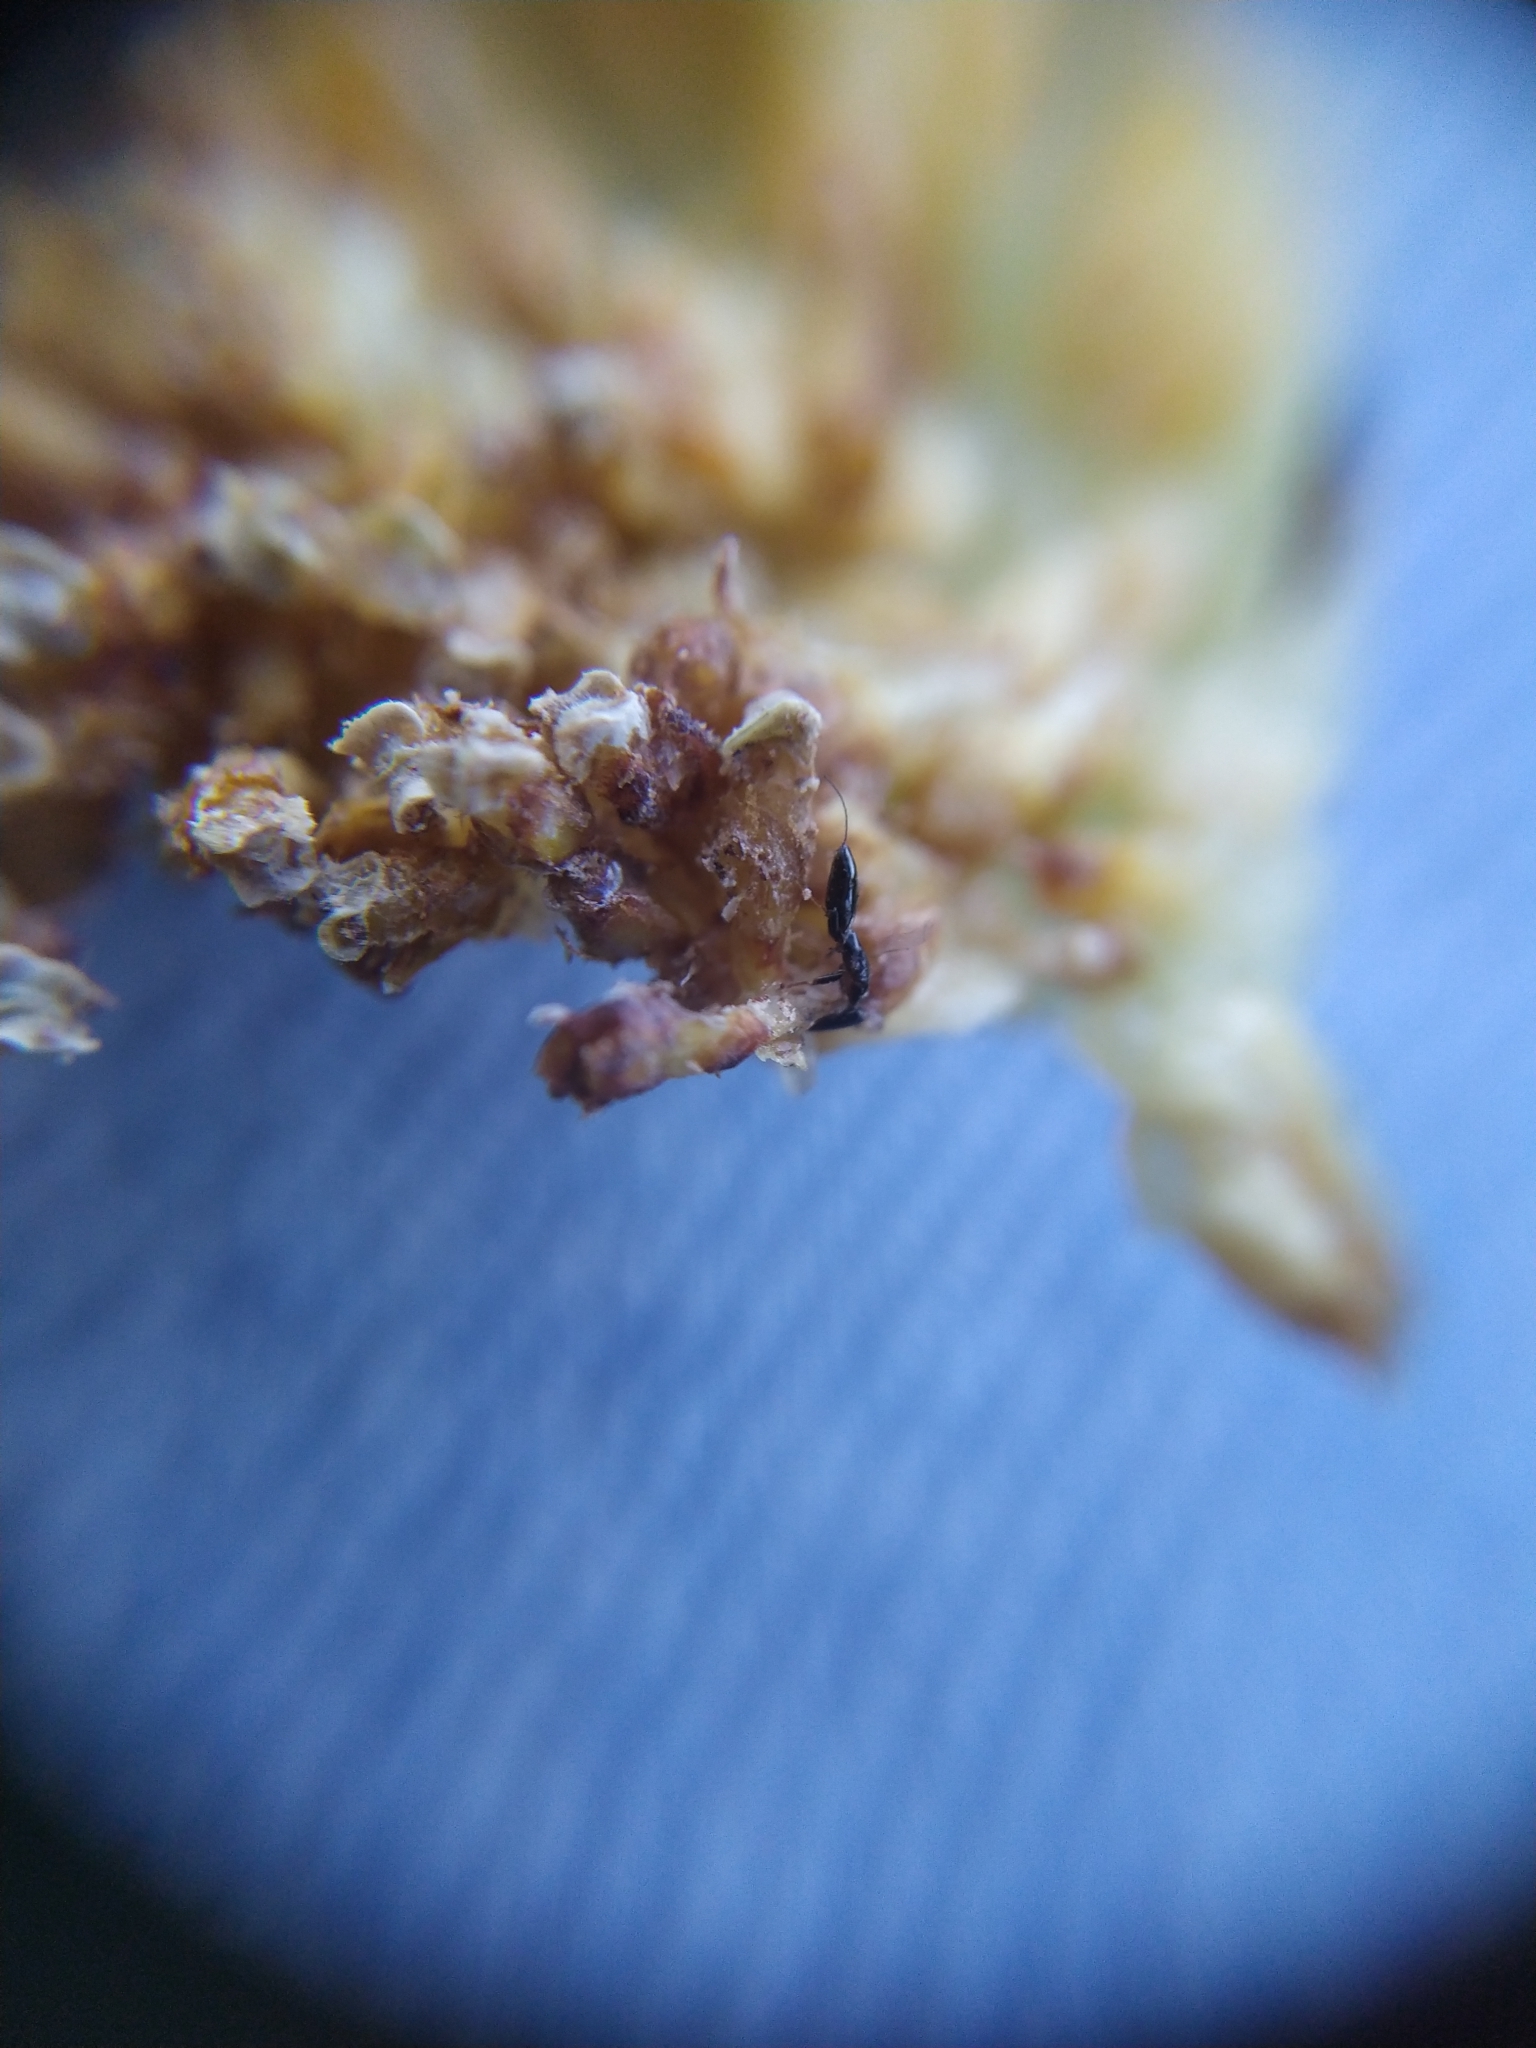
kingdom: Animalia
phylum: Arthropoda
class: Insecta
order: Hymenoptera
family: Agaonidae
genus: Pleistodontes
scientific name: Pleistodontes froggatti
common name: Fig wasp
